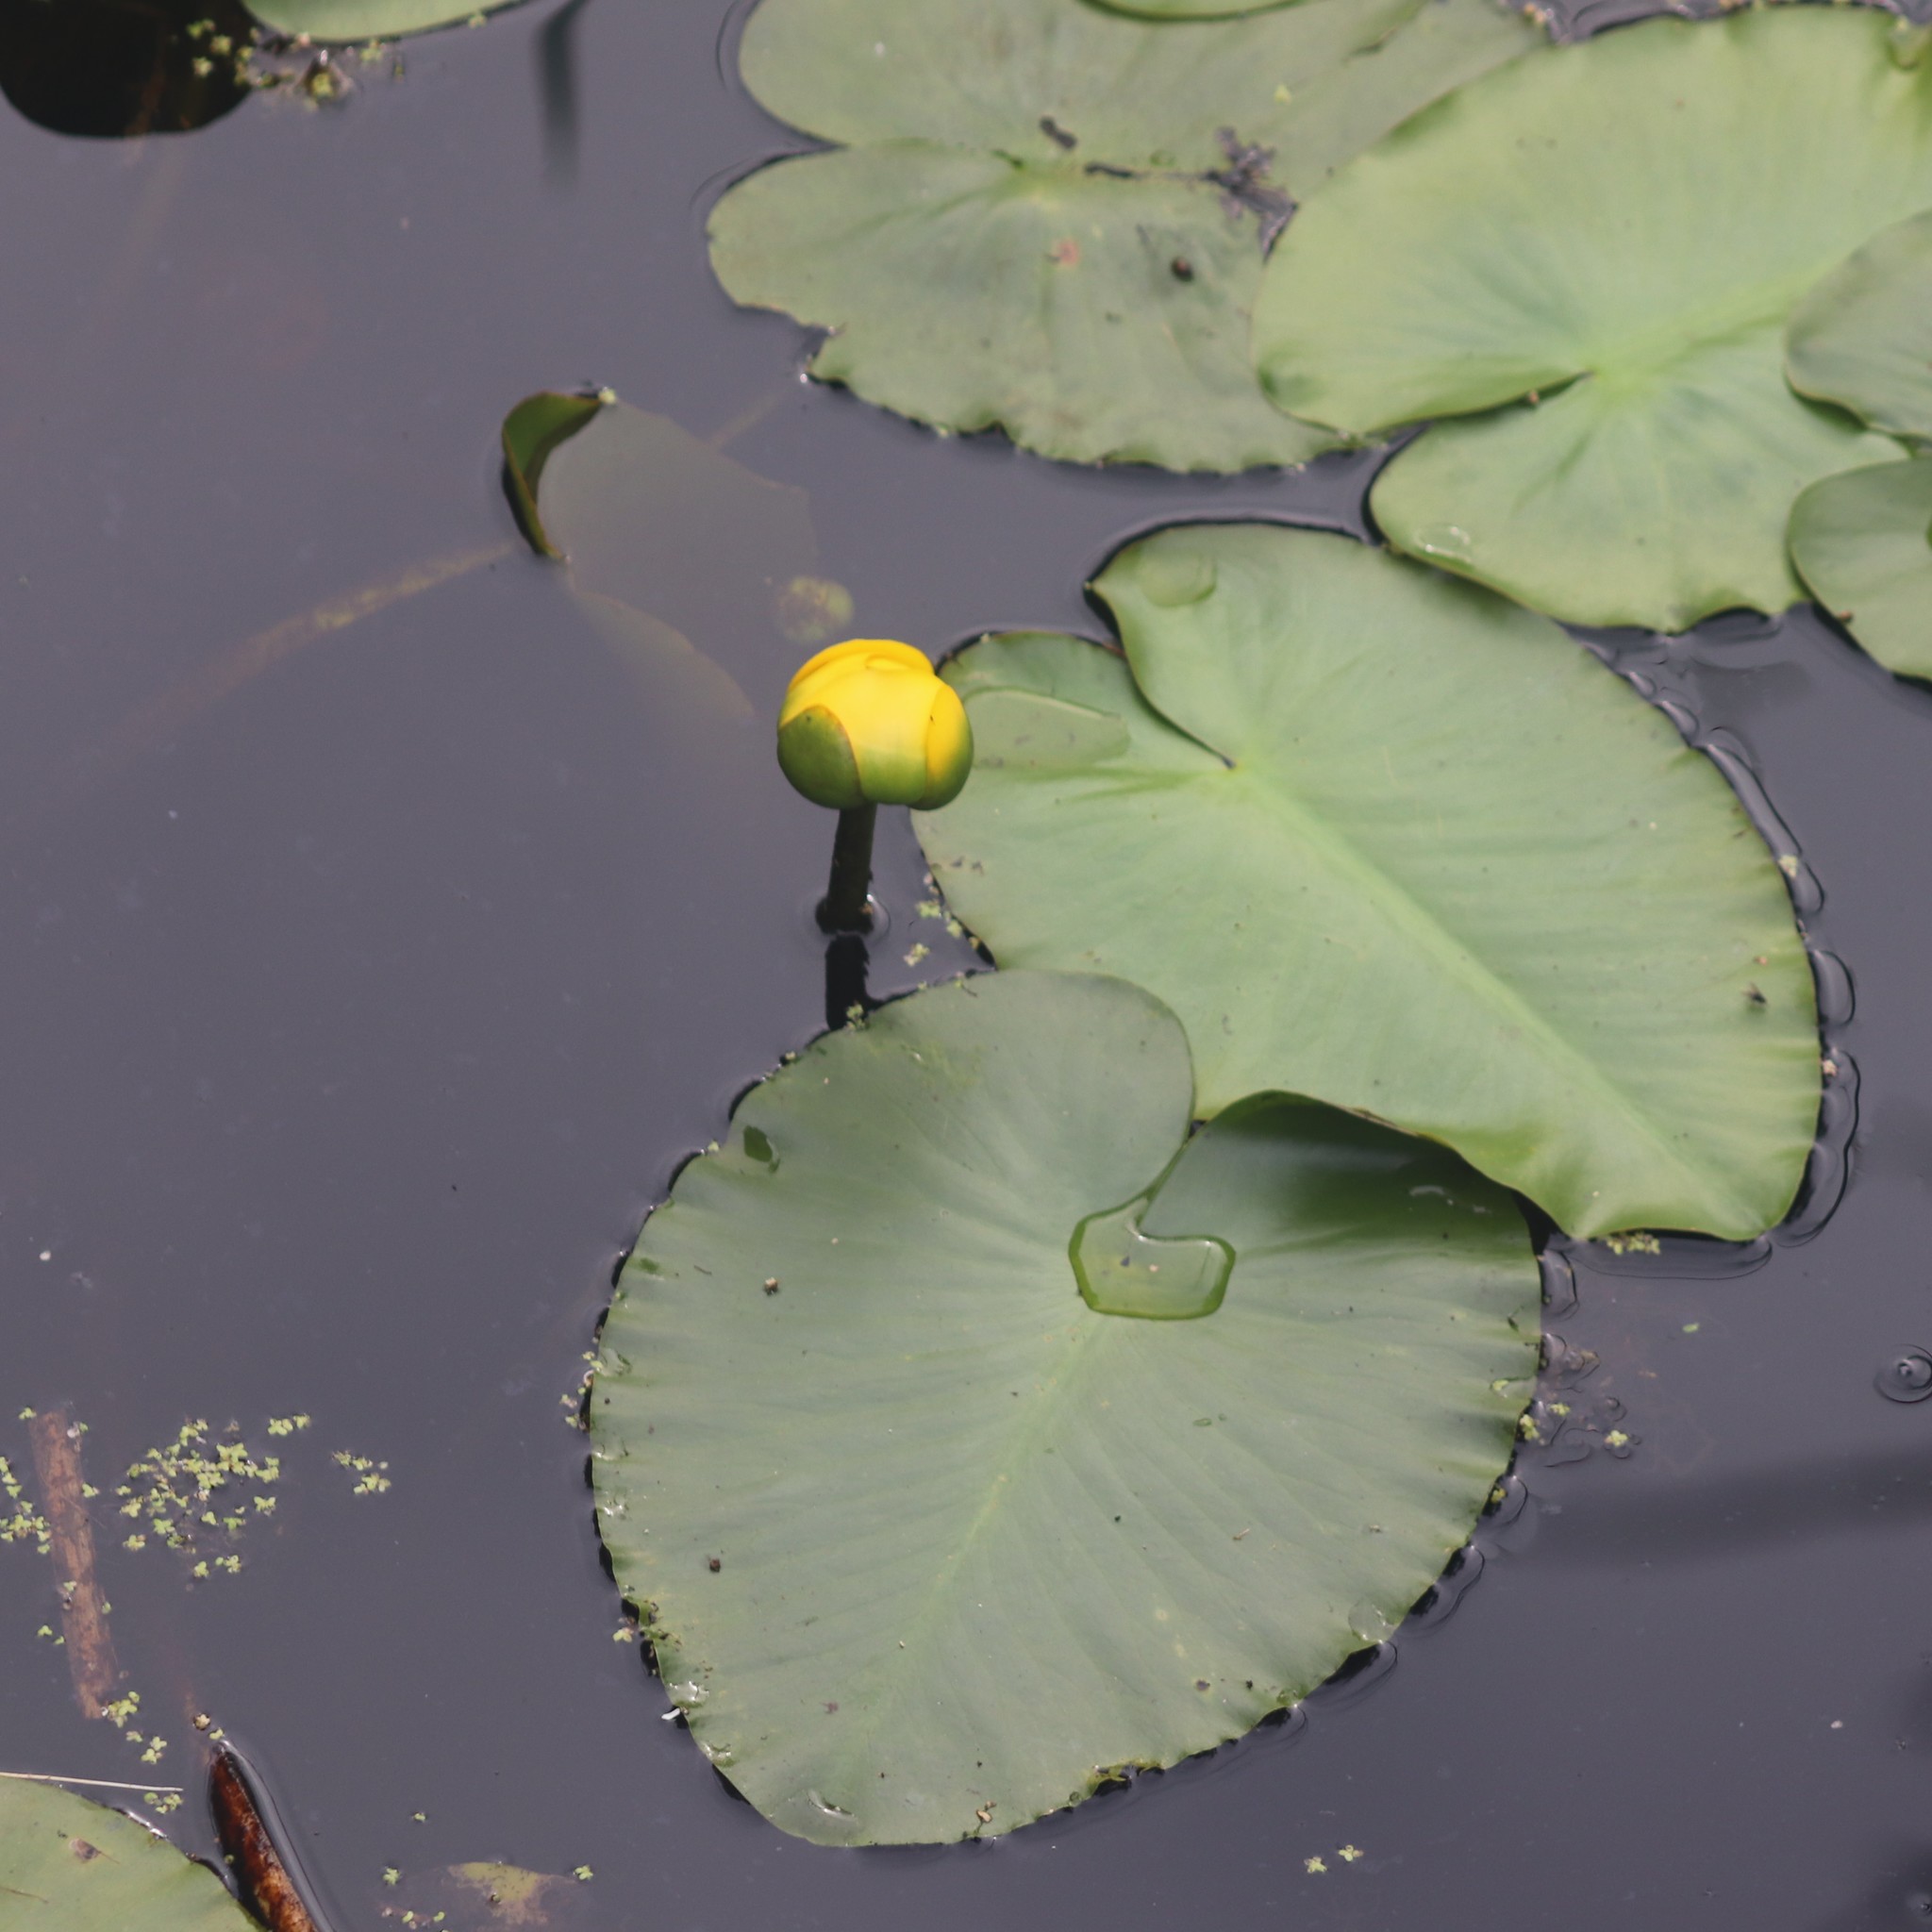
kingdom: Plantae
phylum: Tracheophyta
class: Magnoliopsida
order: Nymphaeales
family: Nymphaeaceae
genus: Nuphar
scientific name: Nuphar variegata
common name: Beaver-root
